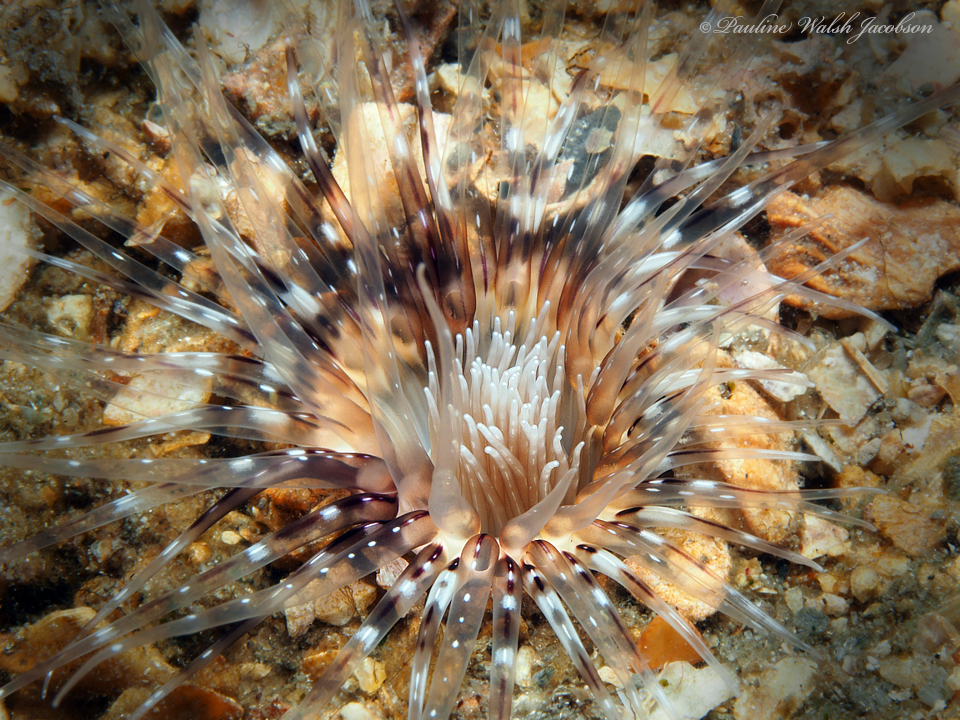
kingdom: Animalia
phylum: Cnidaria
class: Anthozoa
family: Cerianthidae
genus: Ceriantheopsis
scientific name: Ceriantheopsis americana
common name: American tube-dwelling anemone
